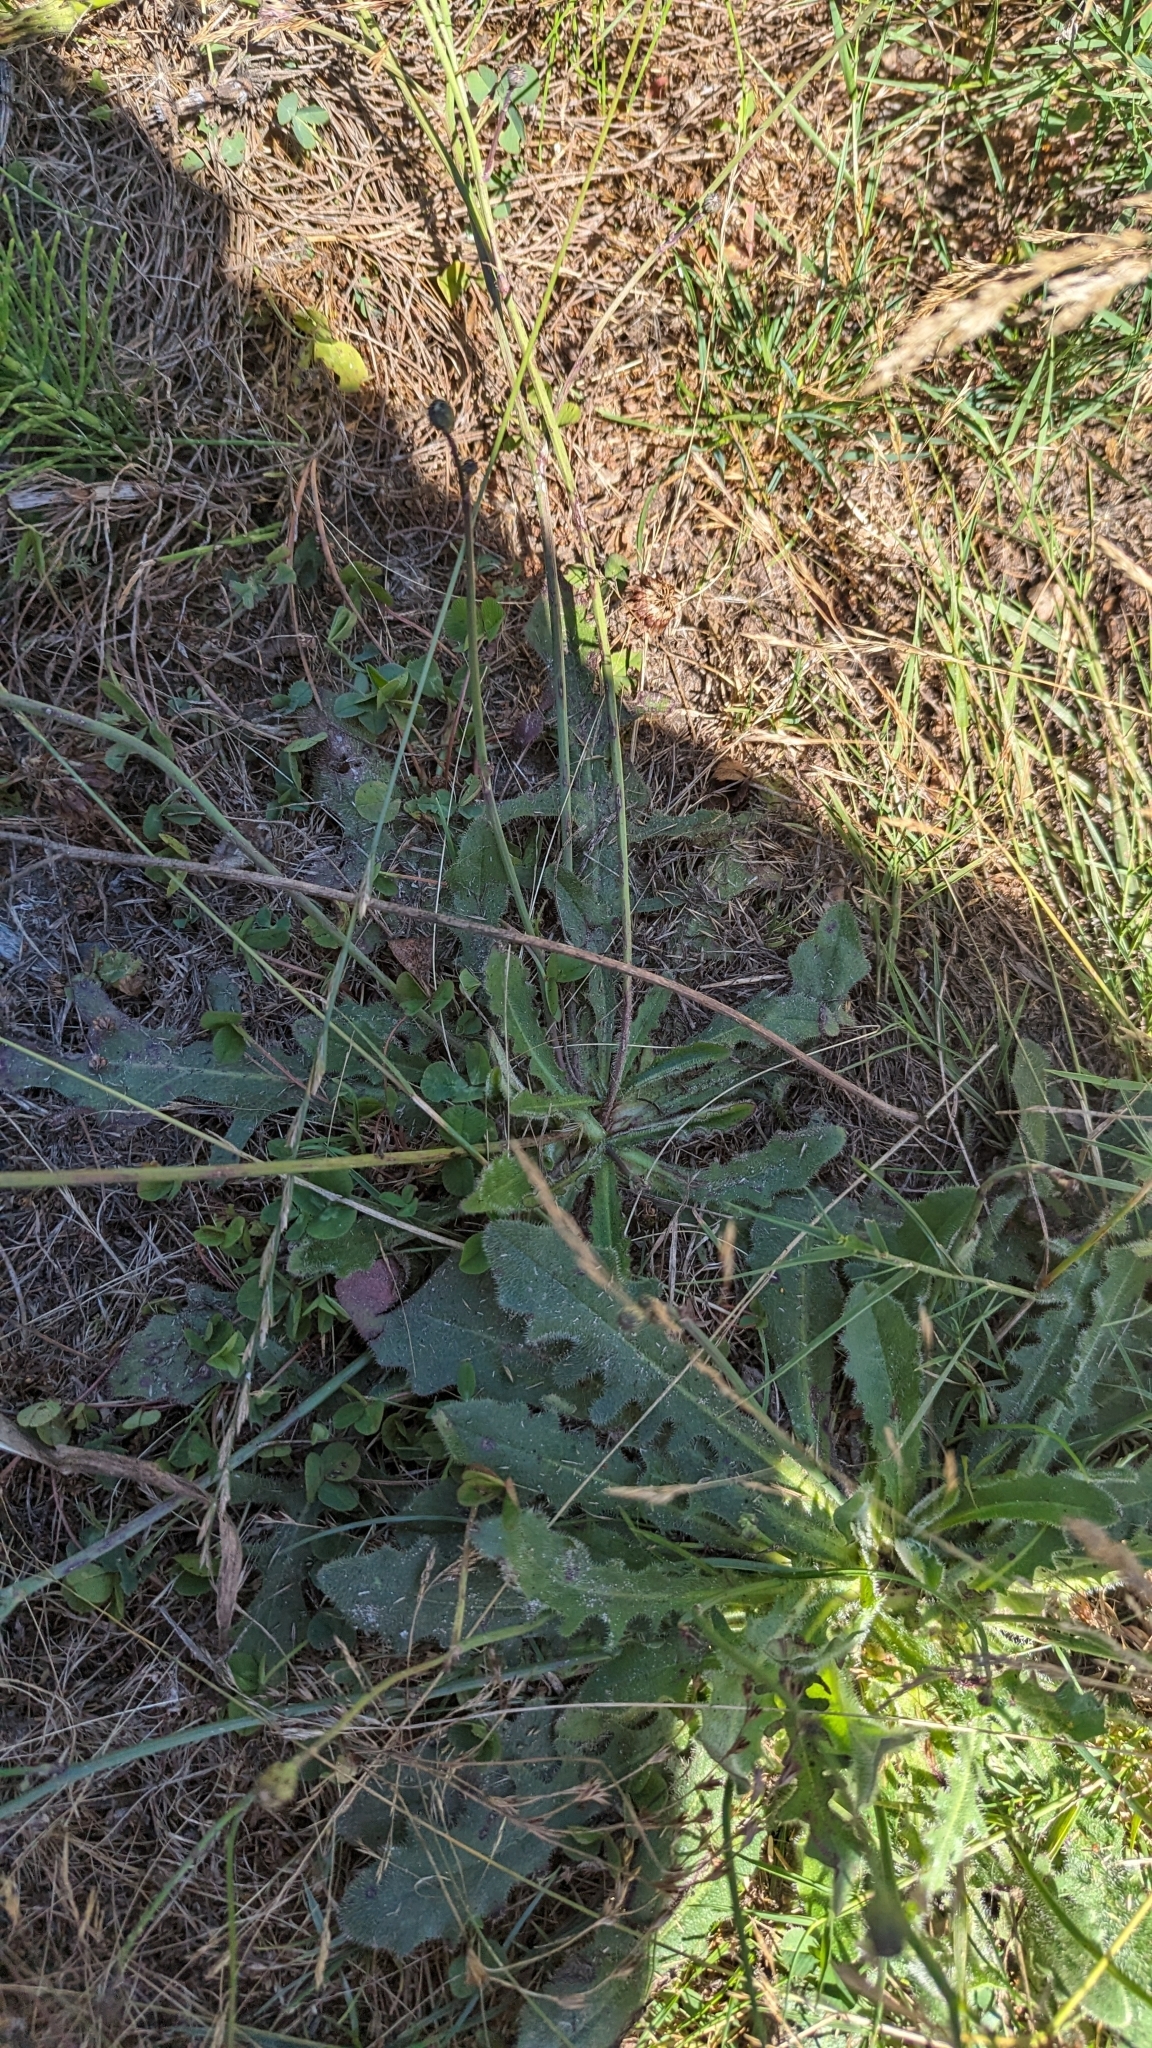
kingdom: Plantae
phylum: Tracheophyta
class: Magnoliopsida
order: Asterales
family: Asteraceae
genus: Hypochaeris
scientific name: Hypochaeris radicata
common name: Flatweed
